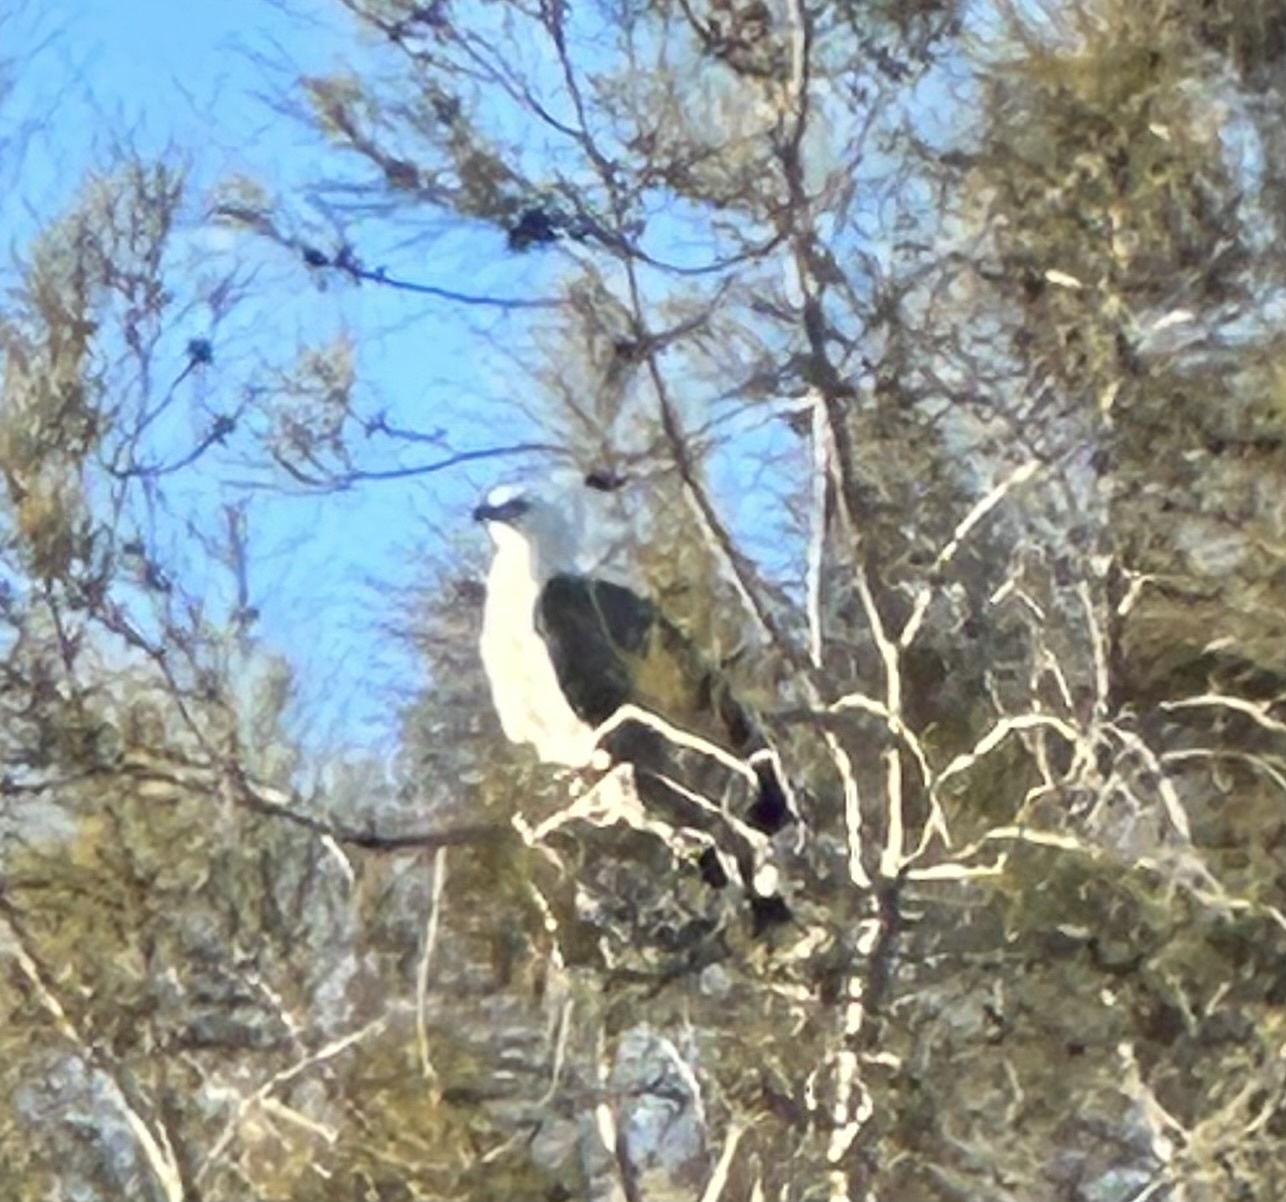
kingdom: Animalia
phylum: Chordata
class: Aves
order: Accipitriformes
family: Accipitridae
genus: Haliaeetus
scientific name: Haliaeetus leucogaster
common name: White-bellied sea eagle
